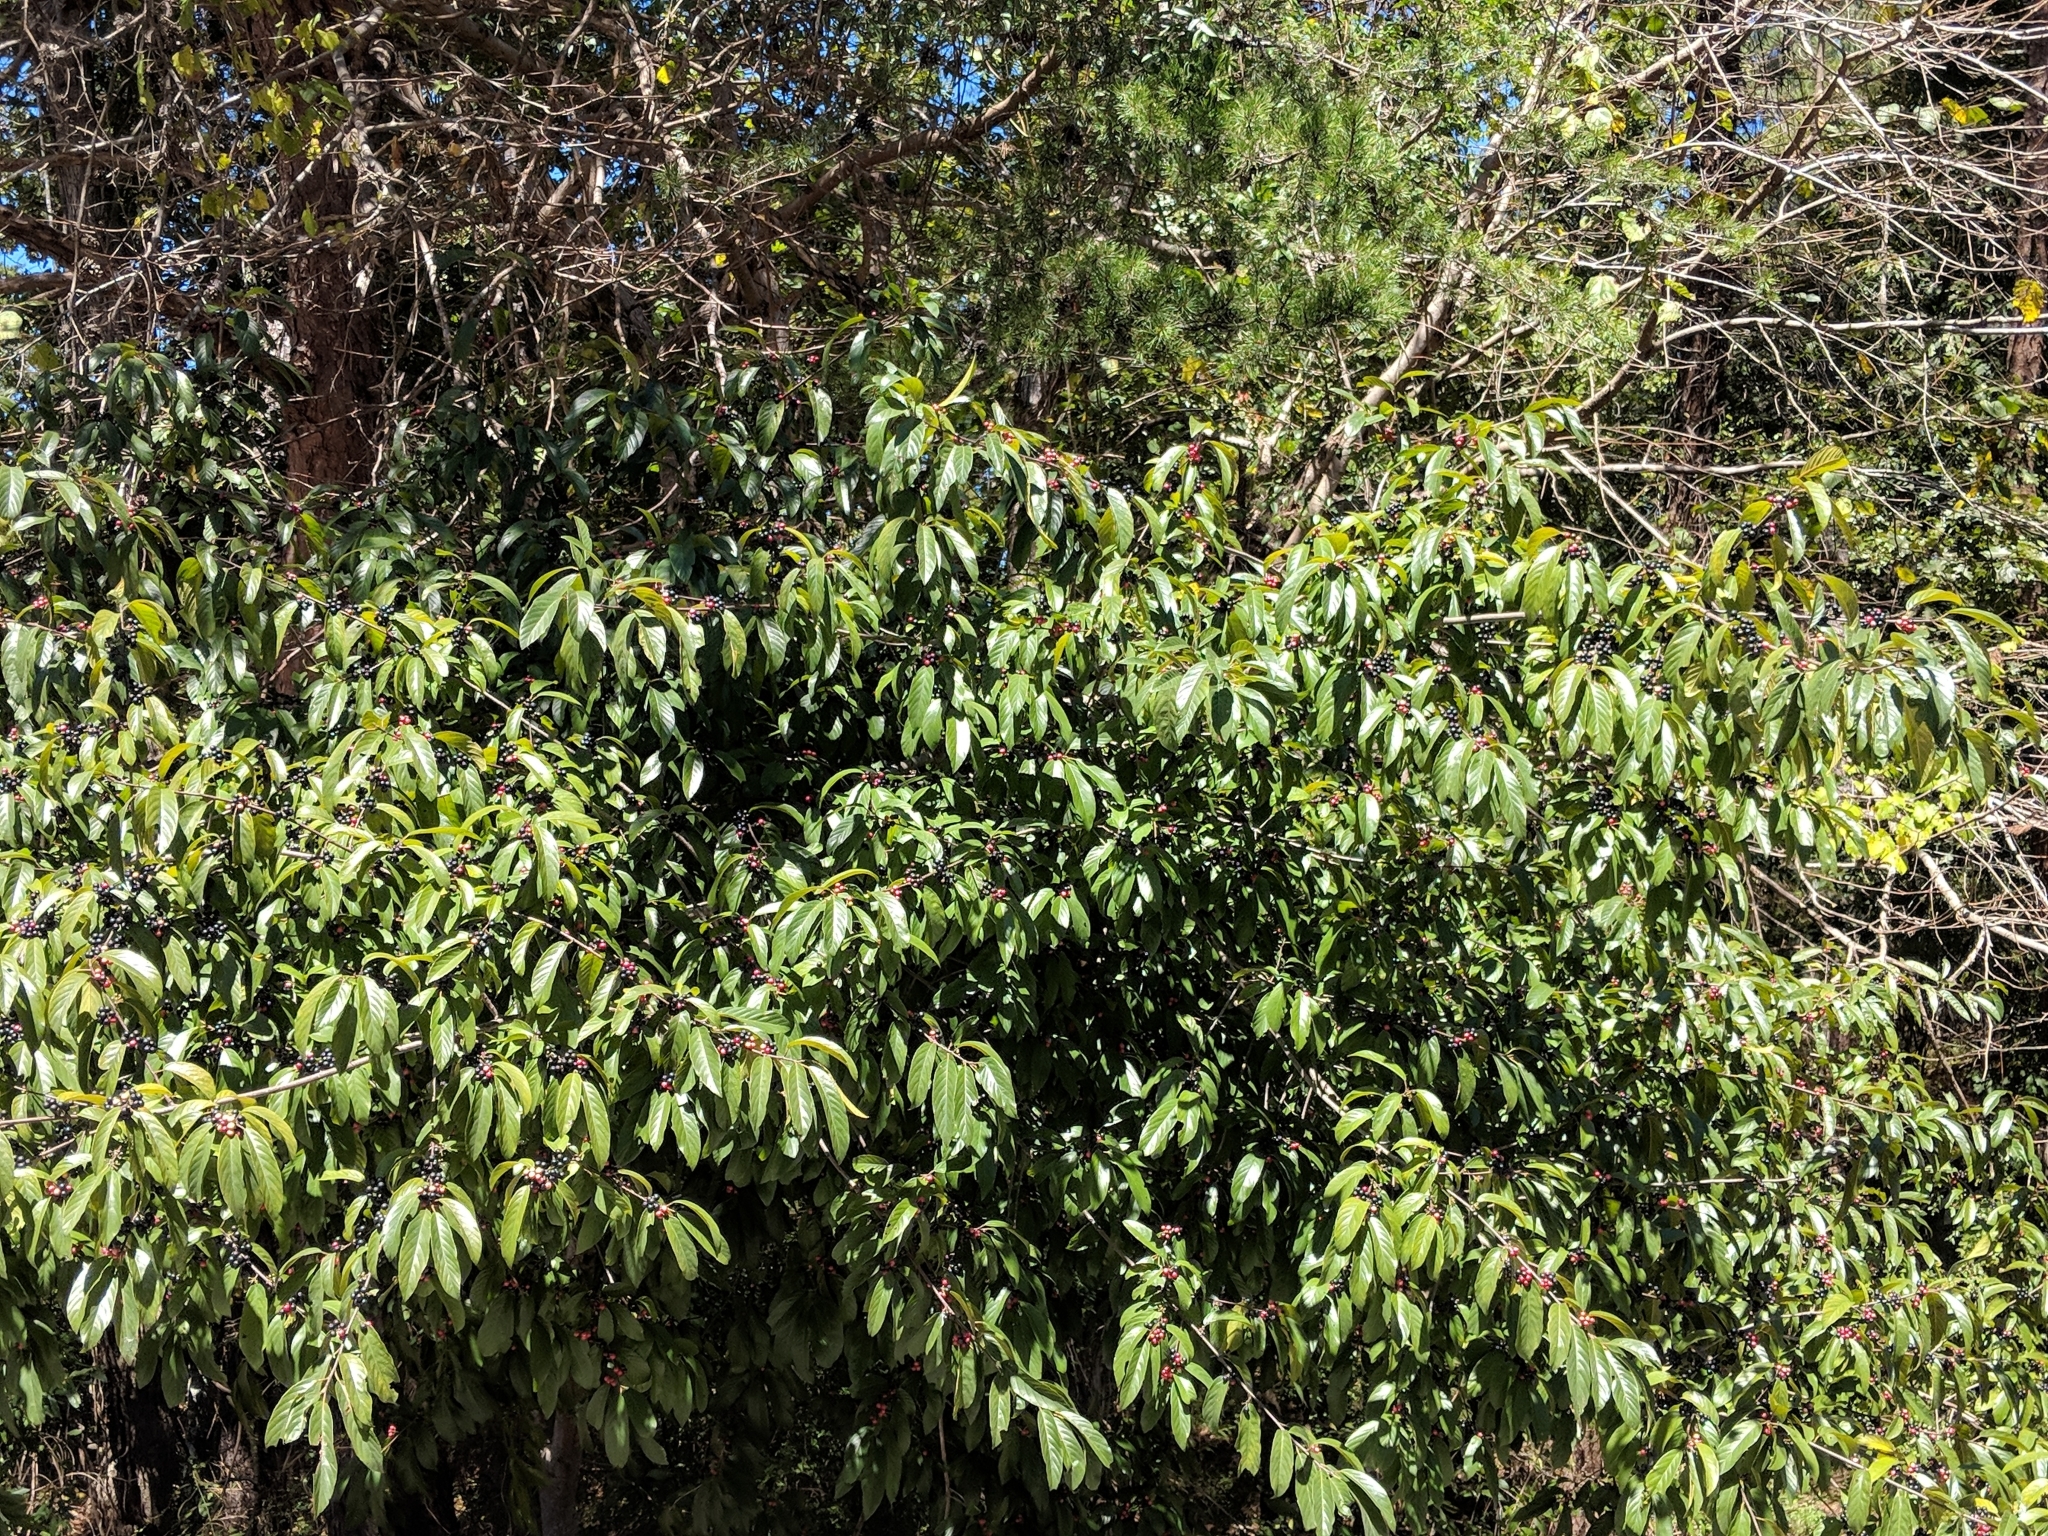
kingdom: Plantae
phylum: Tracheophyta
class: Magnoliopsida
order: Rosales
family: Rhamnaceae
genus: Frangula
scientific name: Frangula caroliniana
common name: Carolina buckthorn
